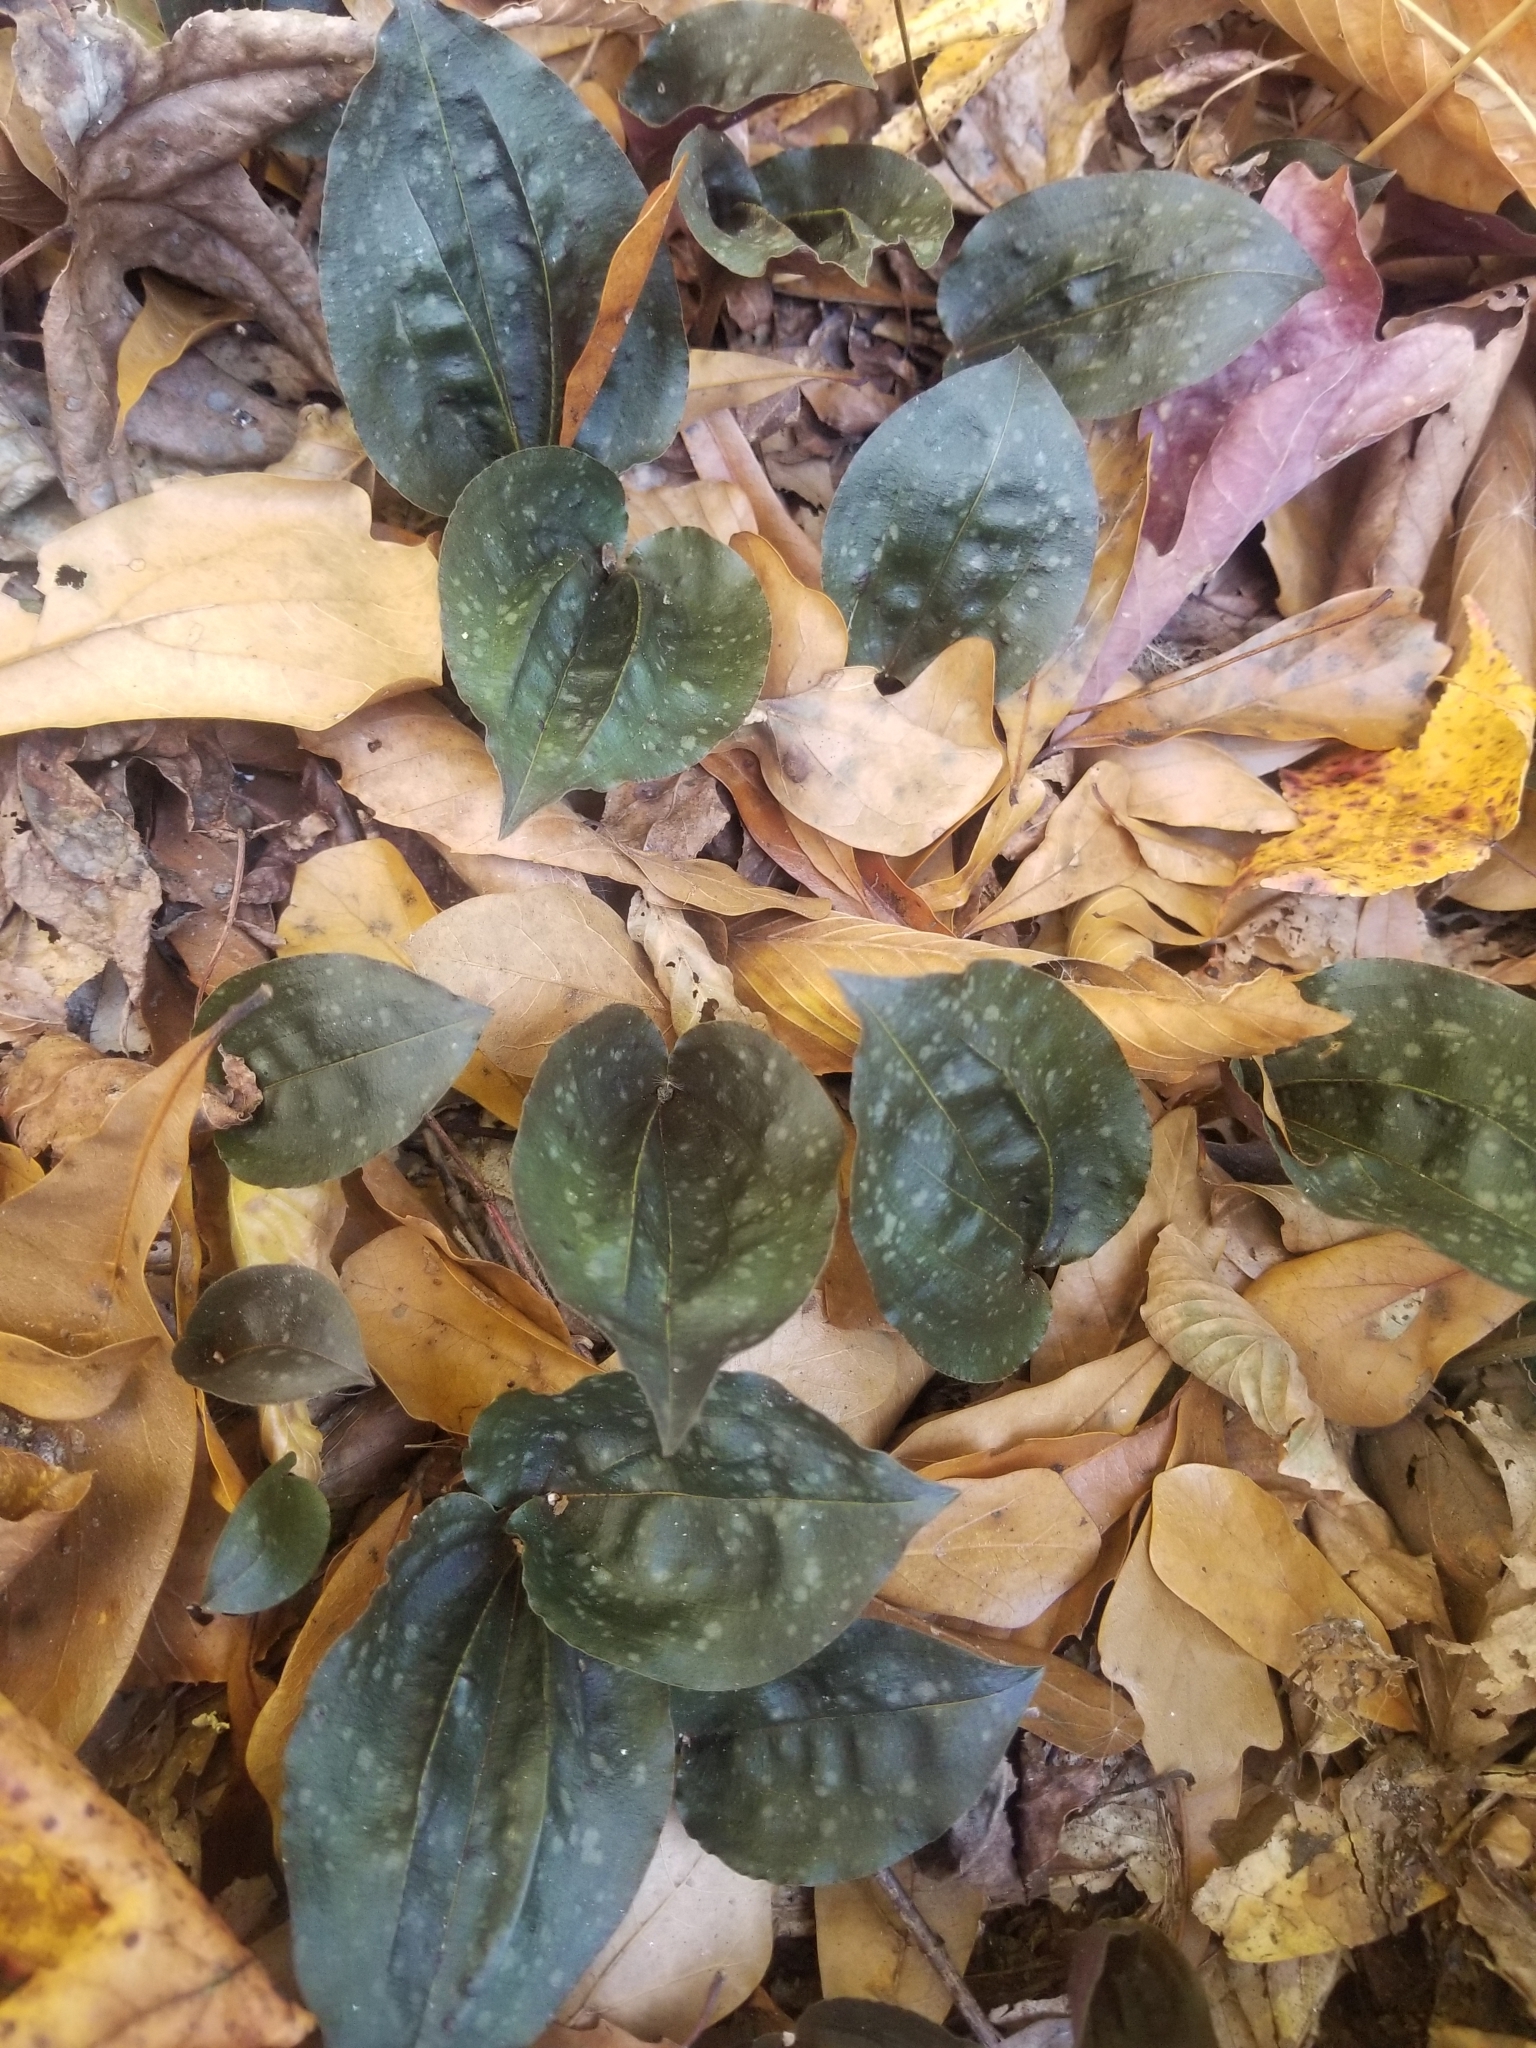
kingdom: Plantae
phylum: Tracheophyta
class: Liliopsida
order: Asparagales
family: Orchidaceae
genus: Tipularia
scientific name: Tipularia discolor
